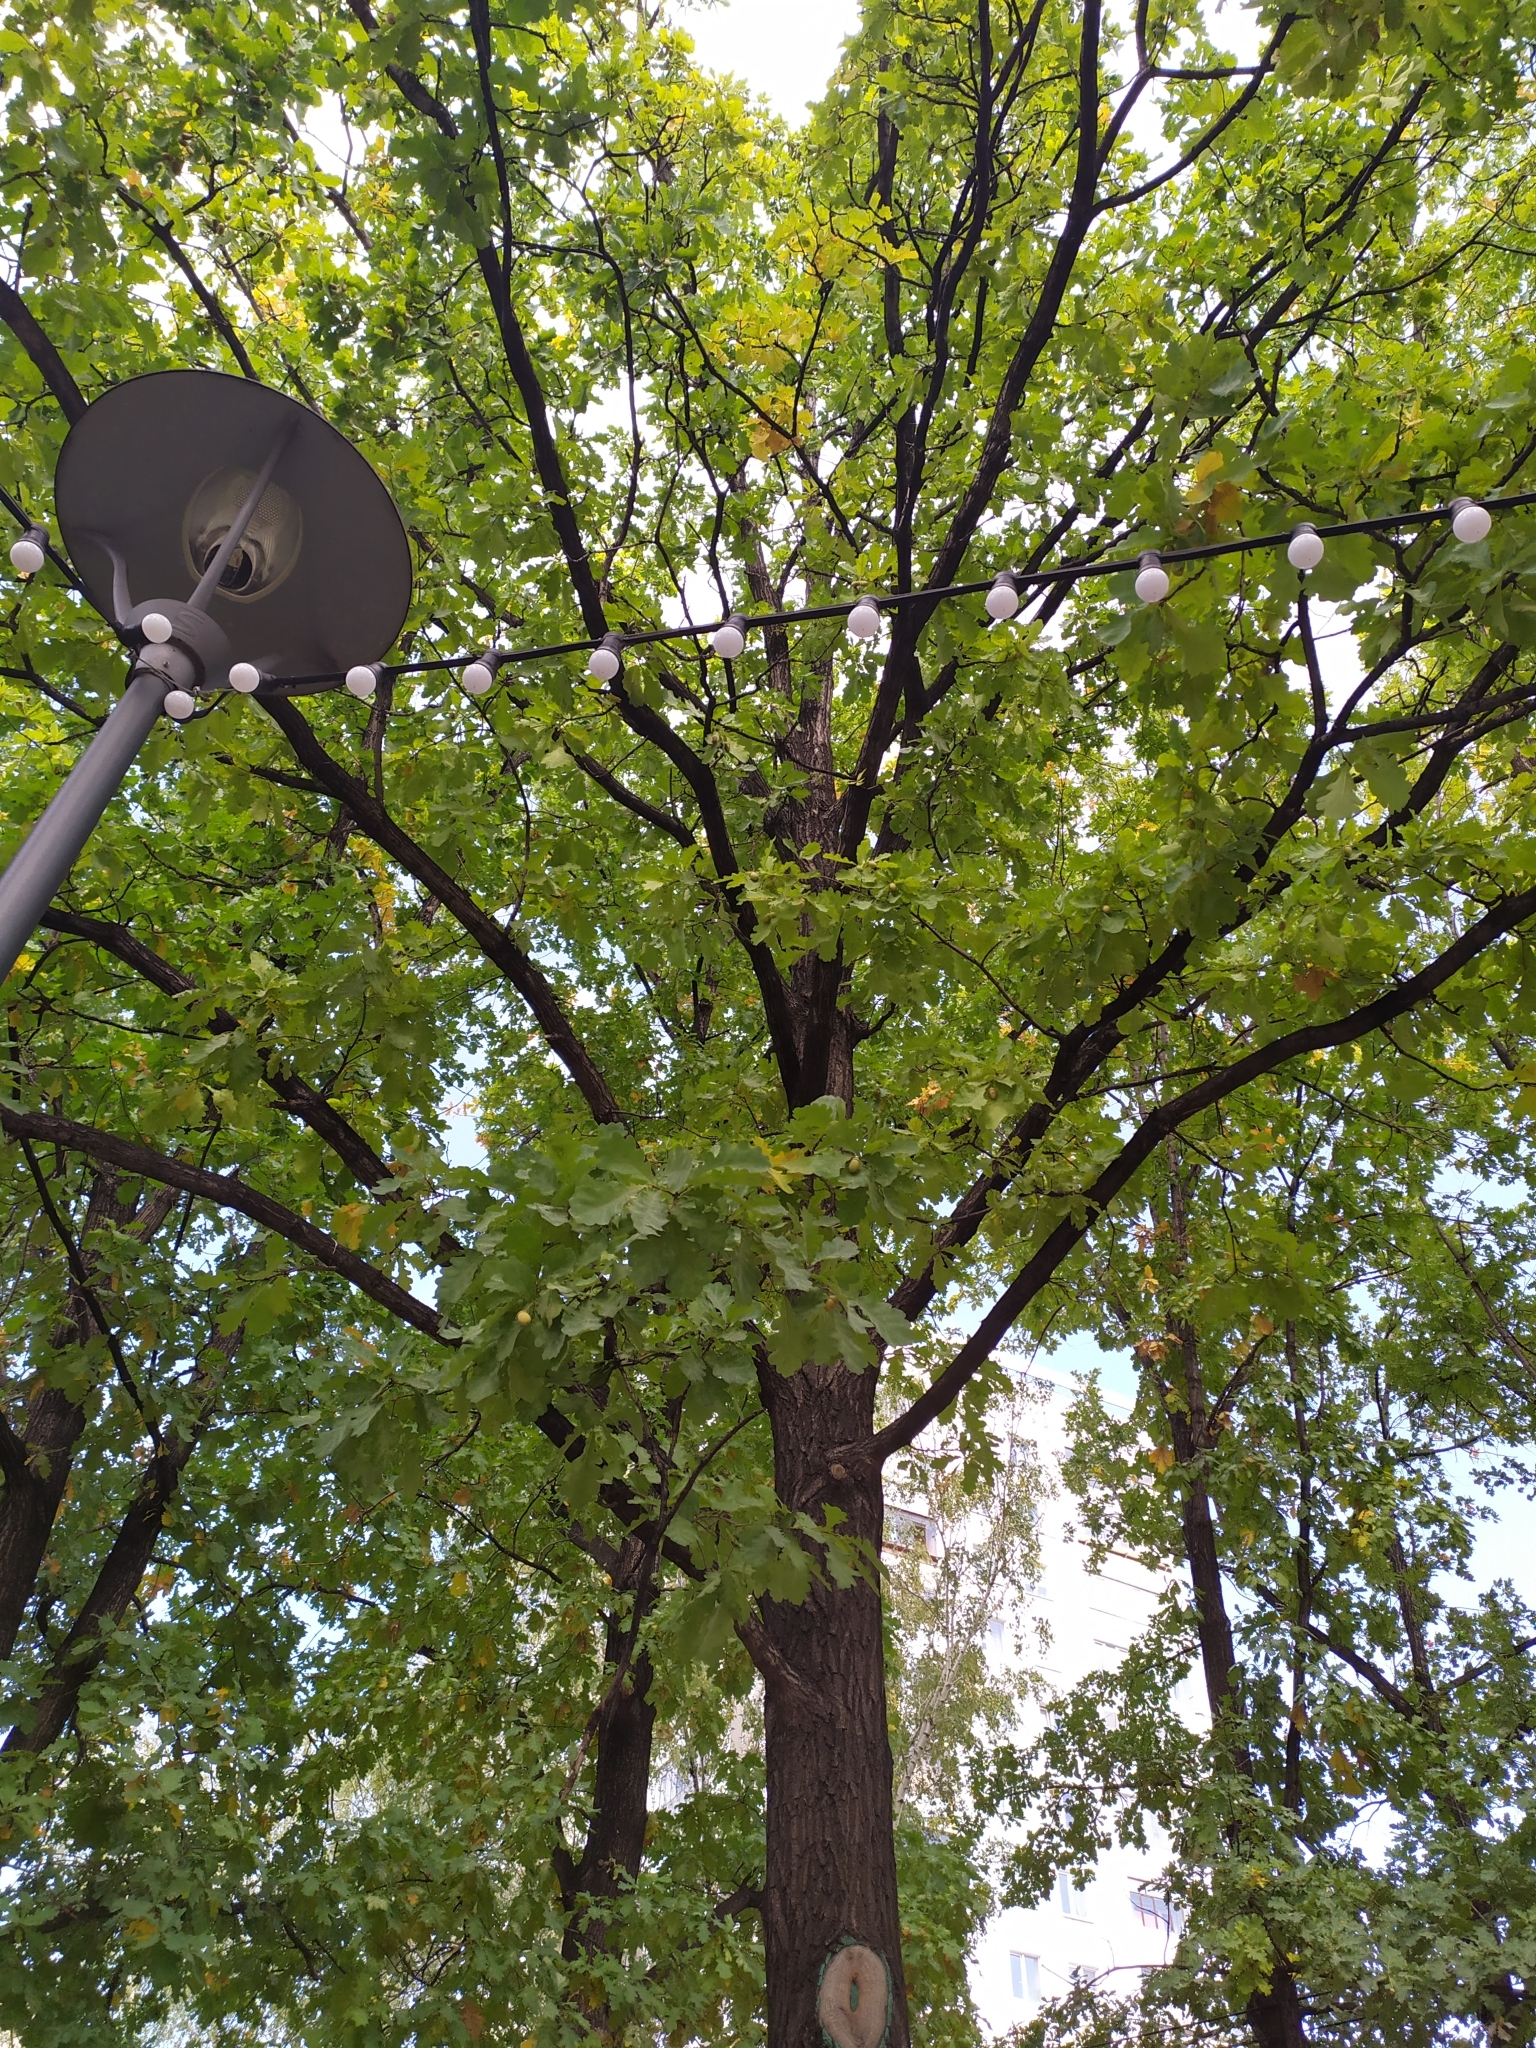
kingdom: Plantae
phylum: Tracheophyta
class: Magnoliopsida
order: Fagales
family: Fagaceae
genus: Quercus
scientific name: Quercus robur
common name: Pedunculate oak
